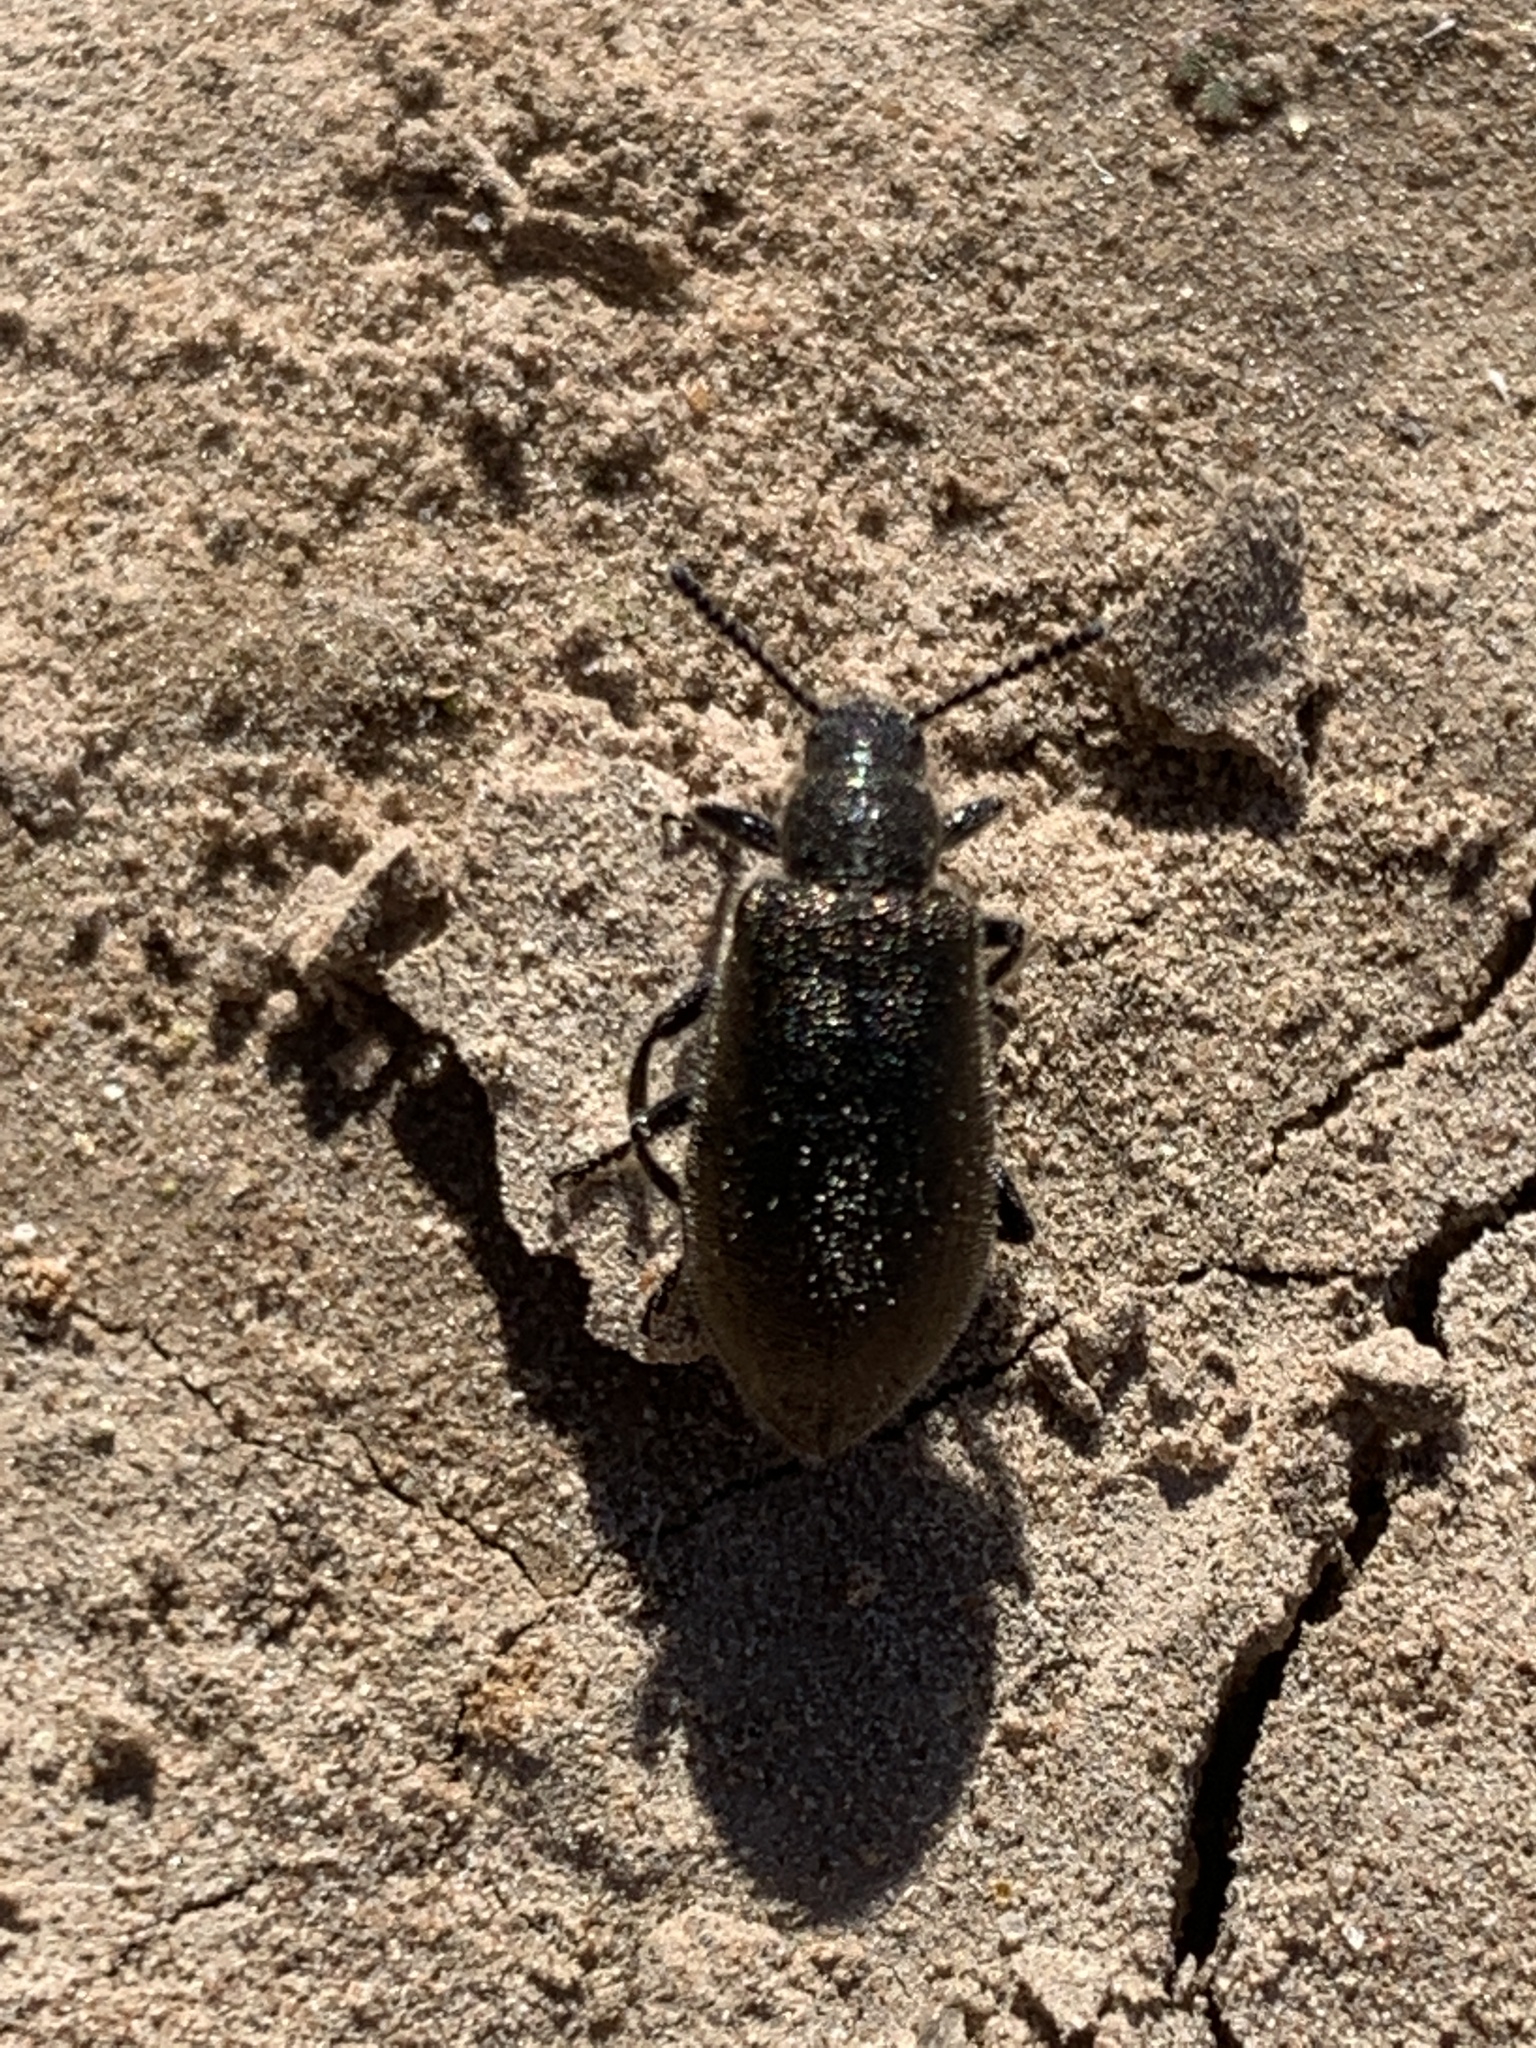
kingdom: Animalia
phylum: Arthropoda
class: Insecta
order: Coleoptera
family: Tenebrionidae
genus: Lagria
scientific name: Lagria villosa
